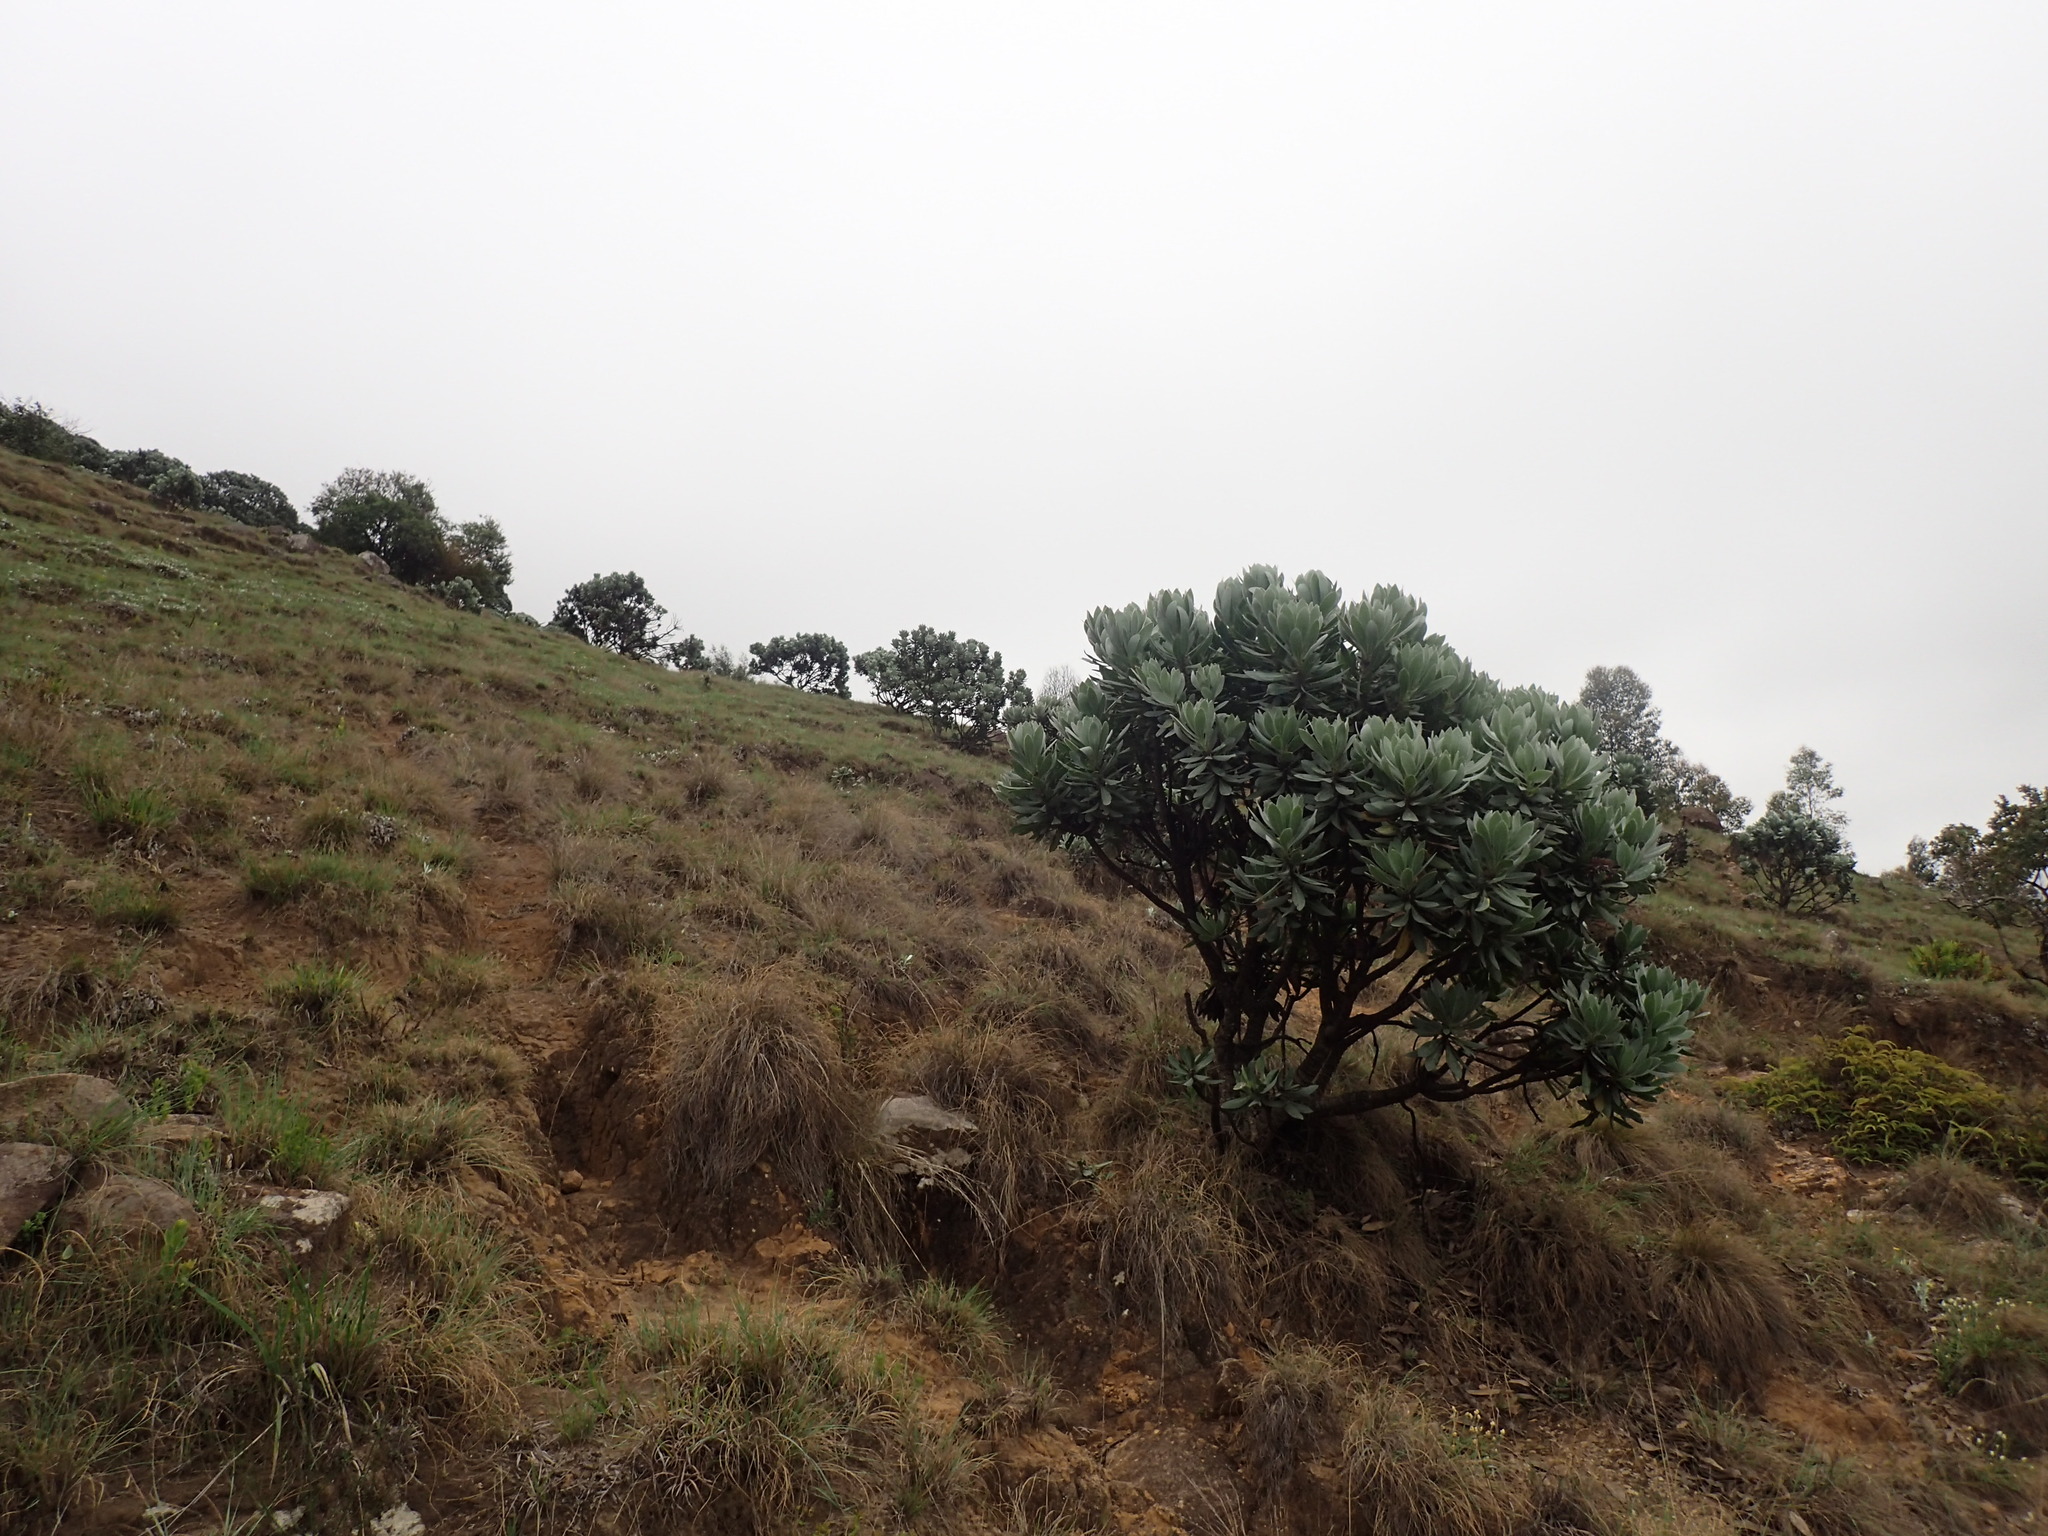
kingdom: Plantae
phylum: Tracheophyta
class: Magnoliopsida
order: Proteales
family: Proteaceae
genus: Protea
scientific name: Protea roupelliae
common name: Silver sugarbush
